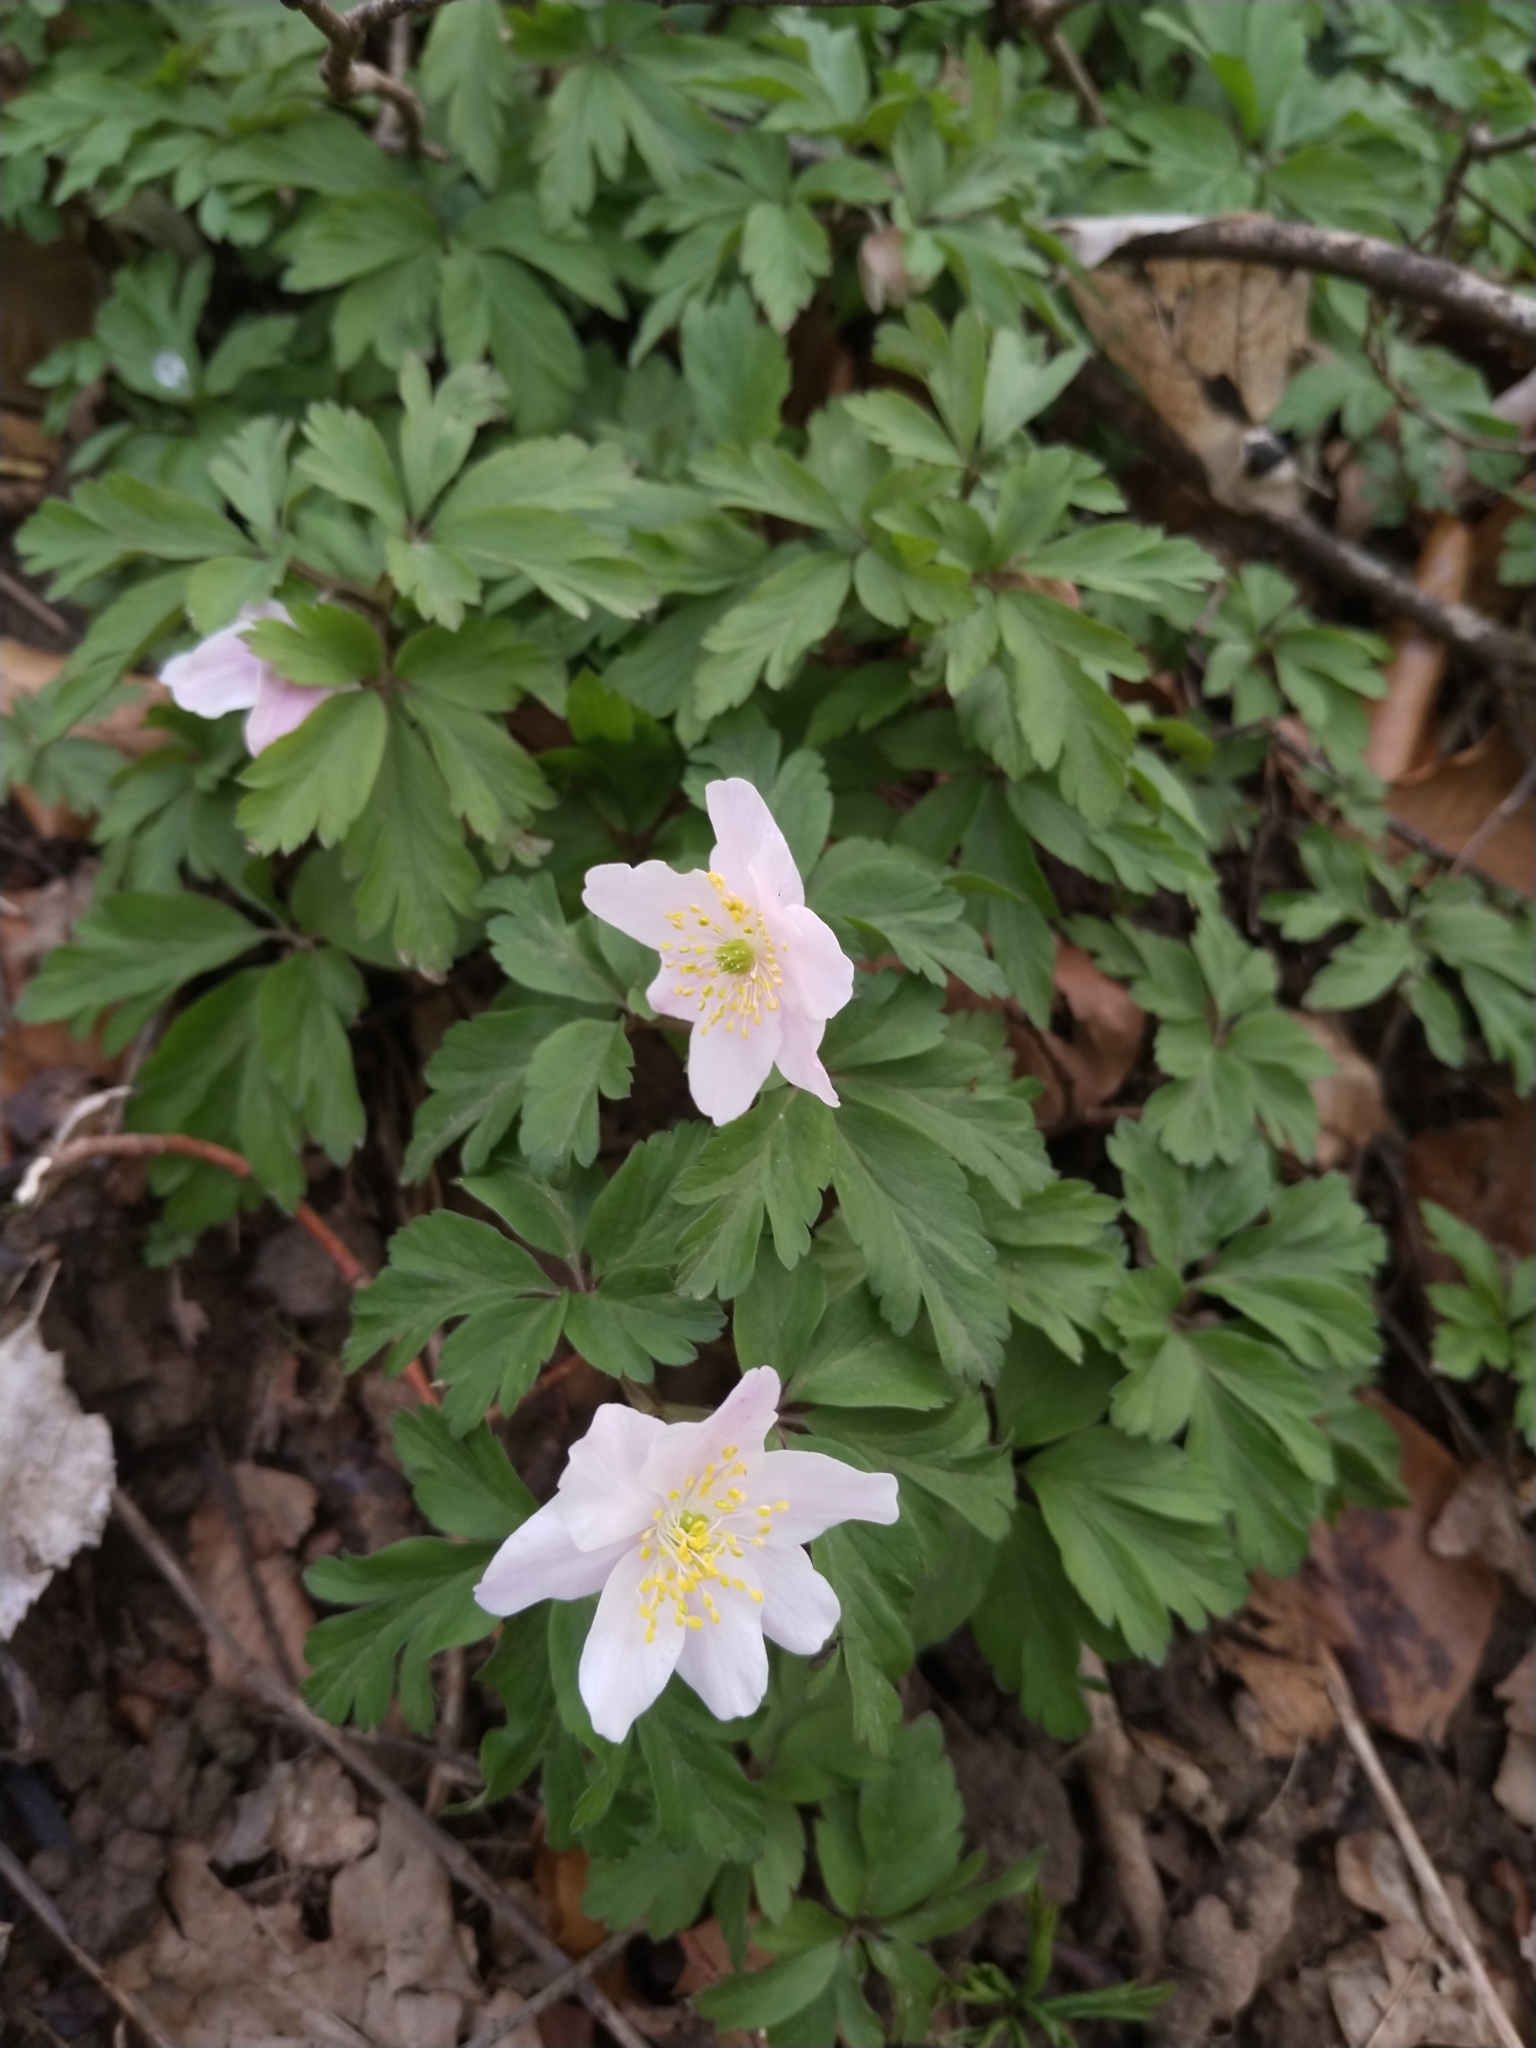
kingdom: Plantae
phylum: Tracheophyta
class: Magnoliopsida
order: Ranunculales
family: Ranunculaceae
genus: Anemone
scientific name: Anemone nemorosa
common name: Wood anemone
